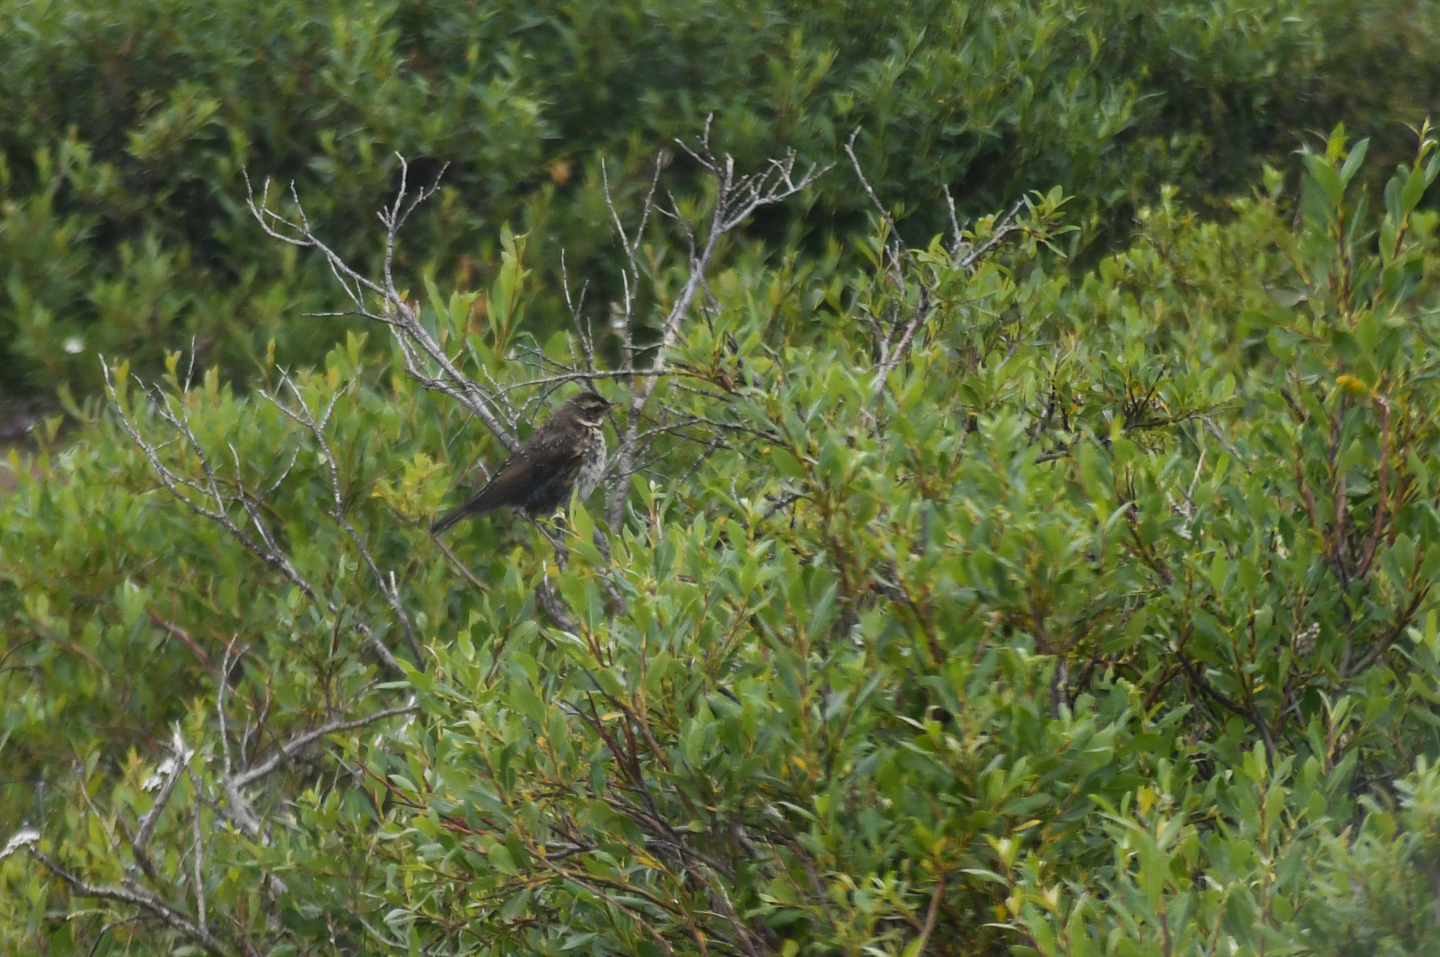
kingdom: Animalia
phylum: Chordata
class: Aves
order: Passeriformes
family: Turdidae
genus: Turdus
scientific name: Turdus iliacus
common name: Redwing
